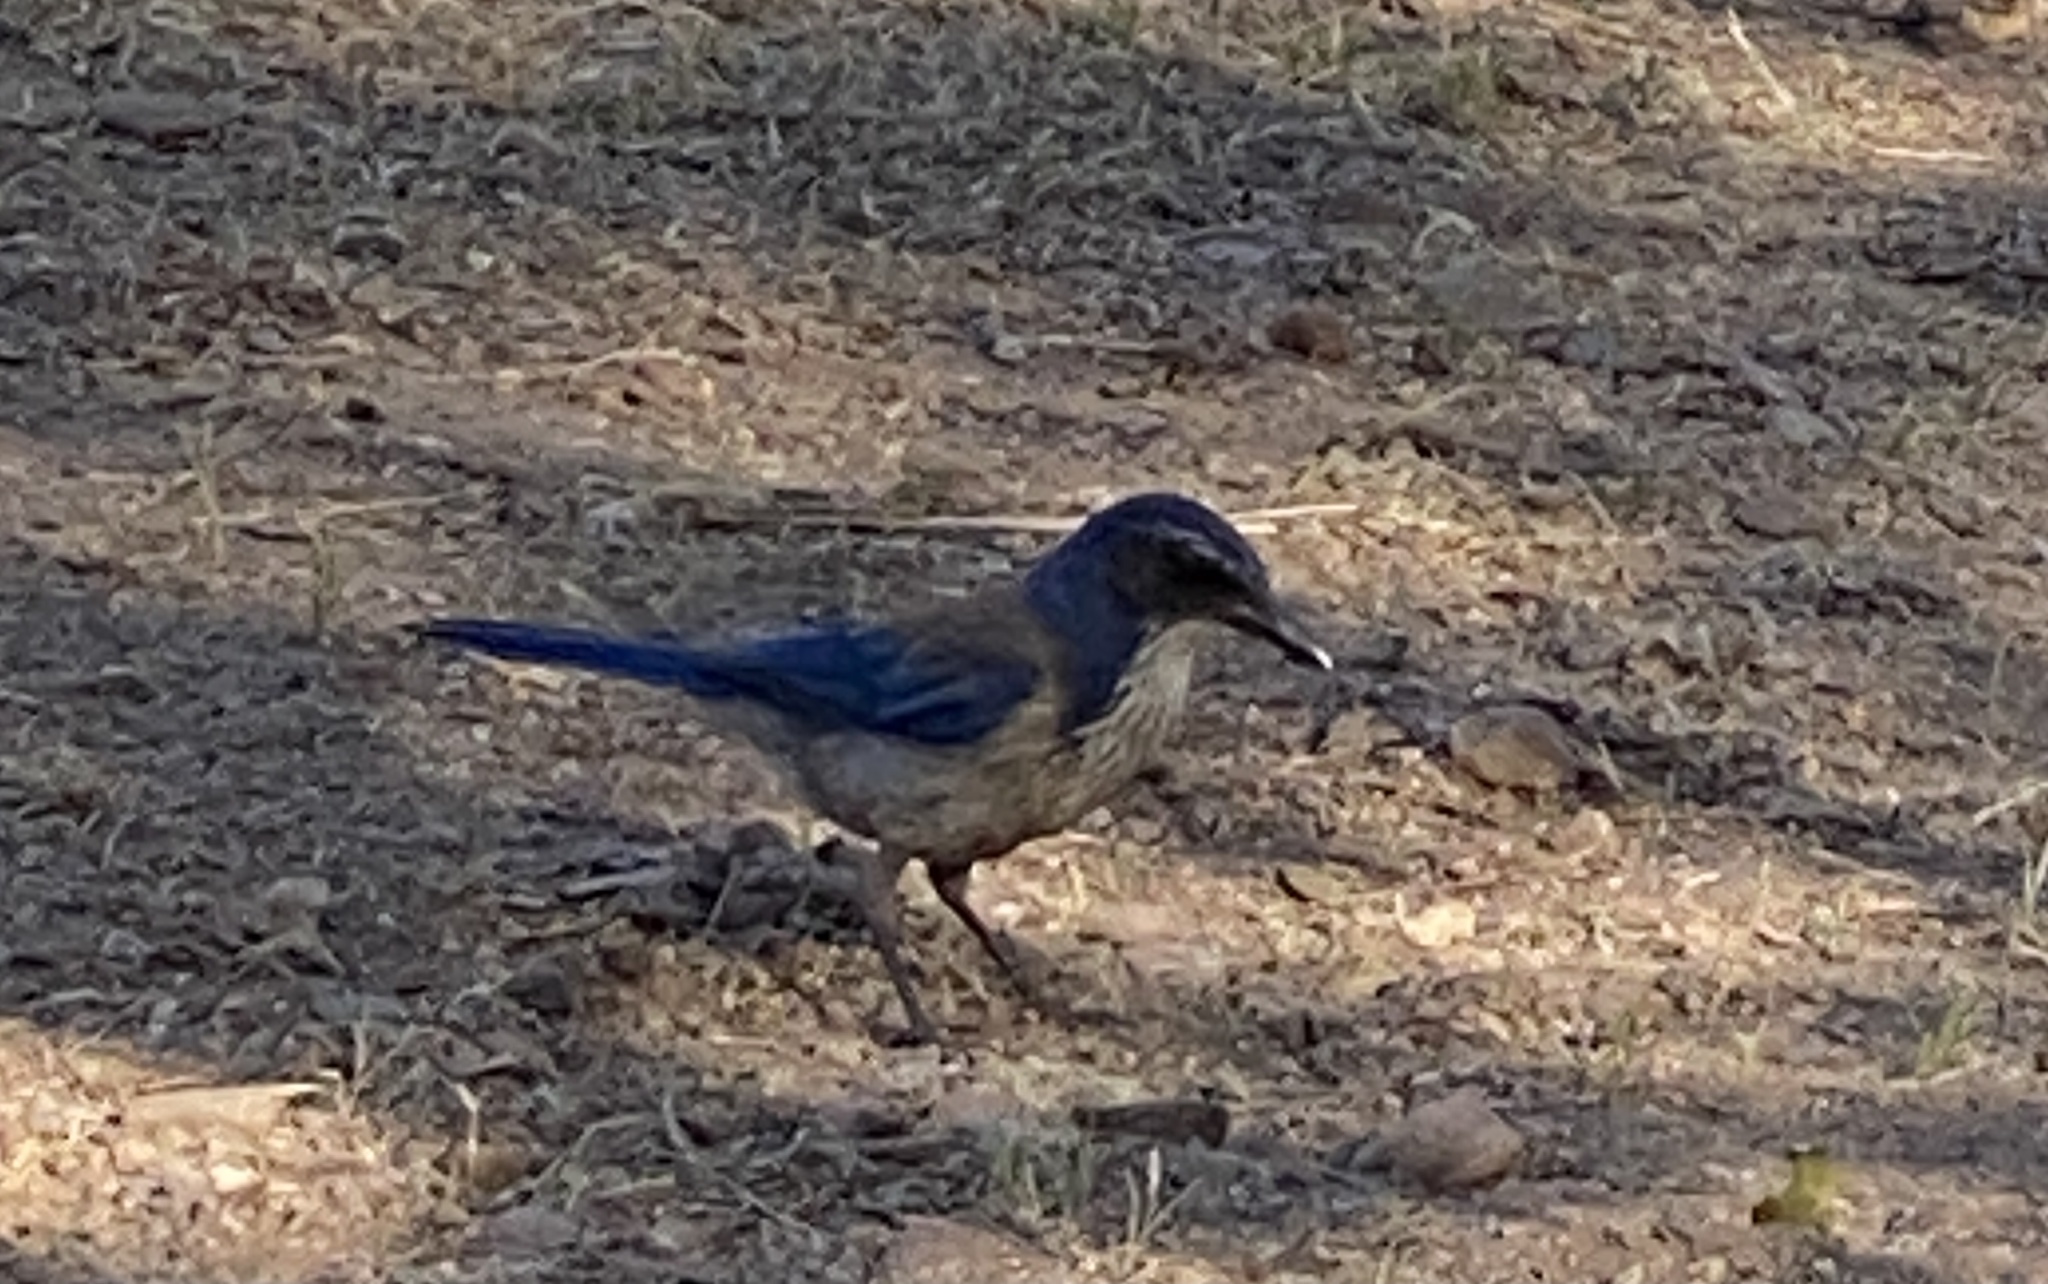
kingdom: Animalia
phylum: Chordata
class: Aves
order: Passeriformes
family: Corvidae
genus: Aphelocoma
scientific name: Aphelocoma californica
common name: California scrub-jay
